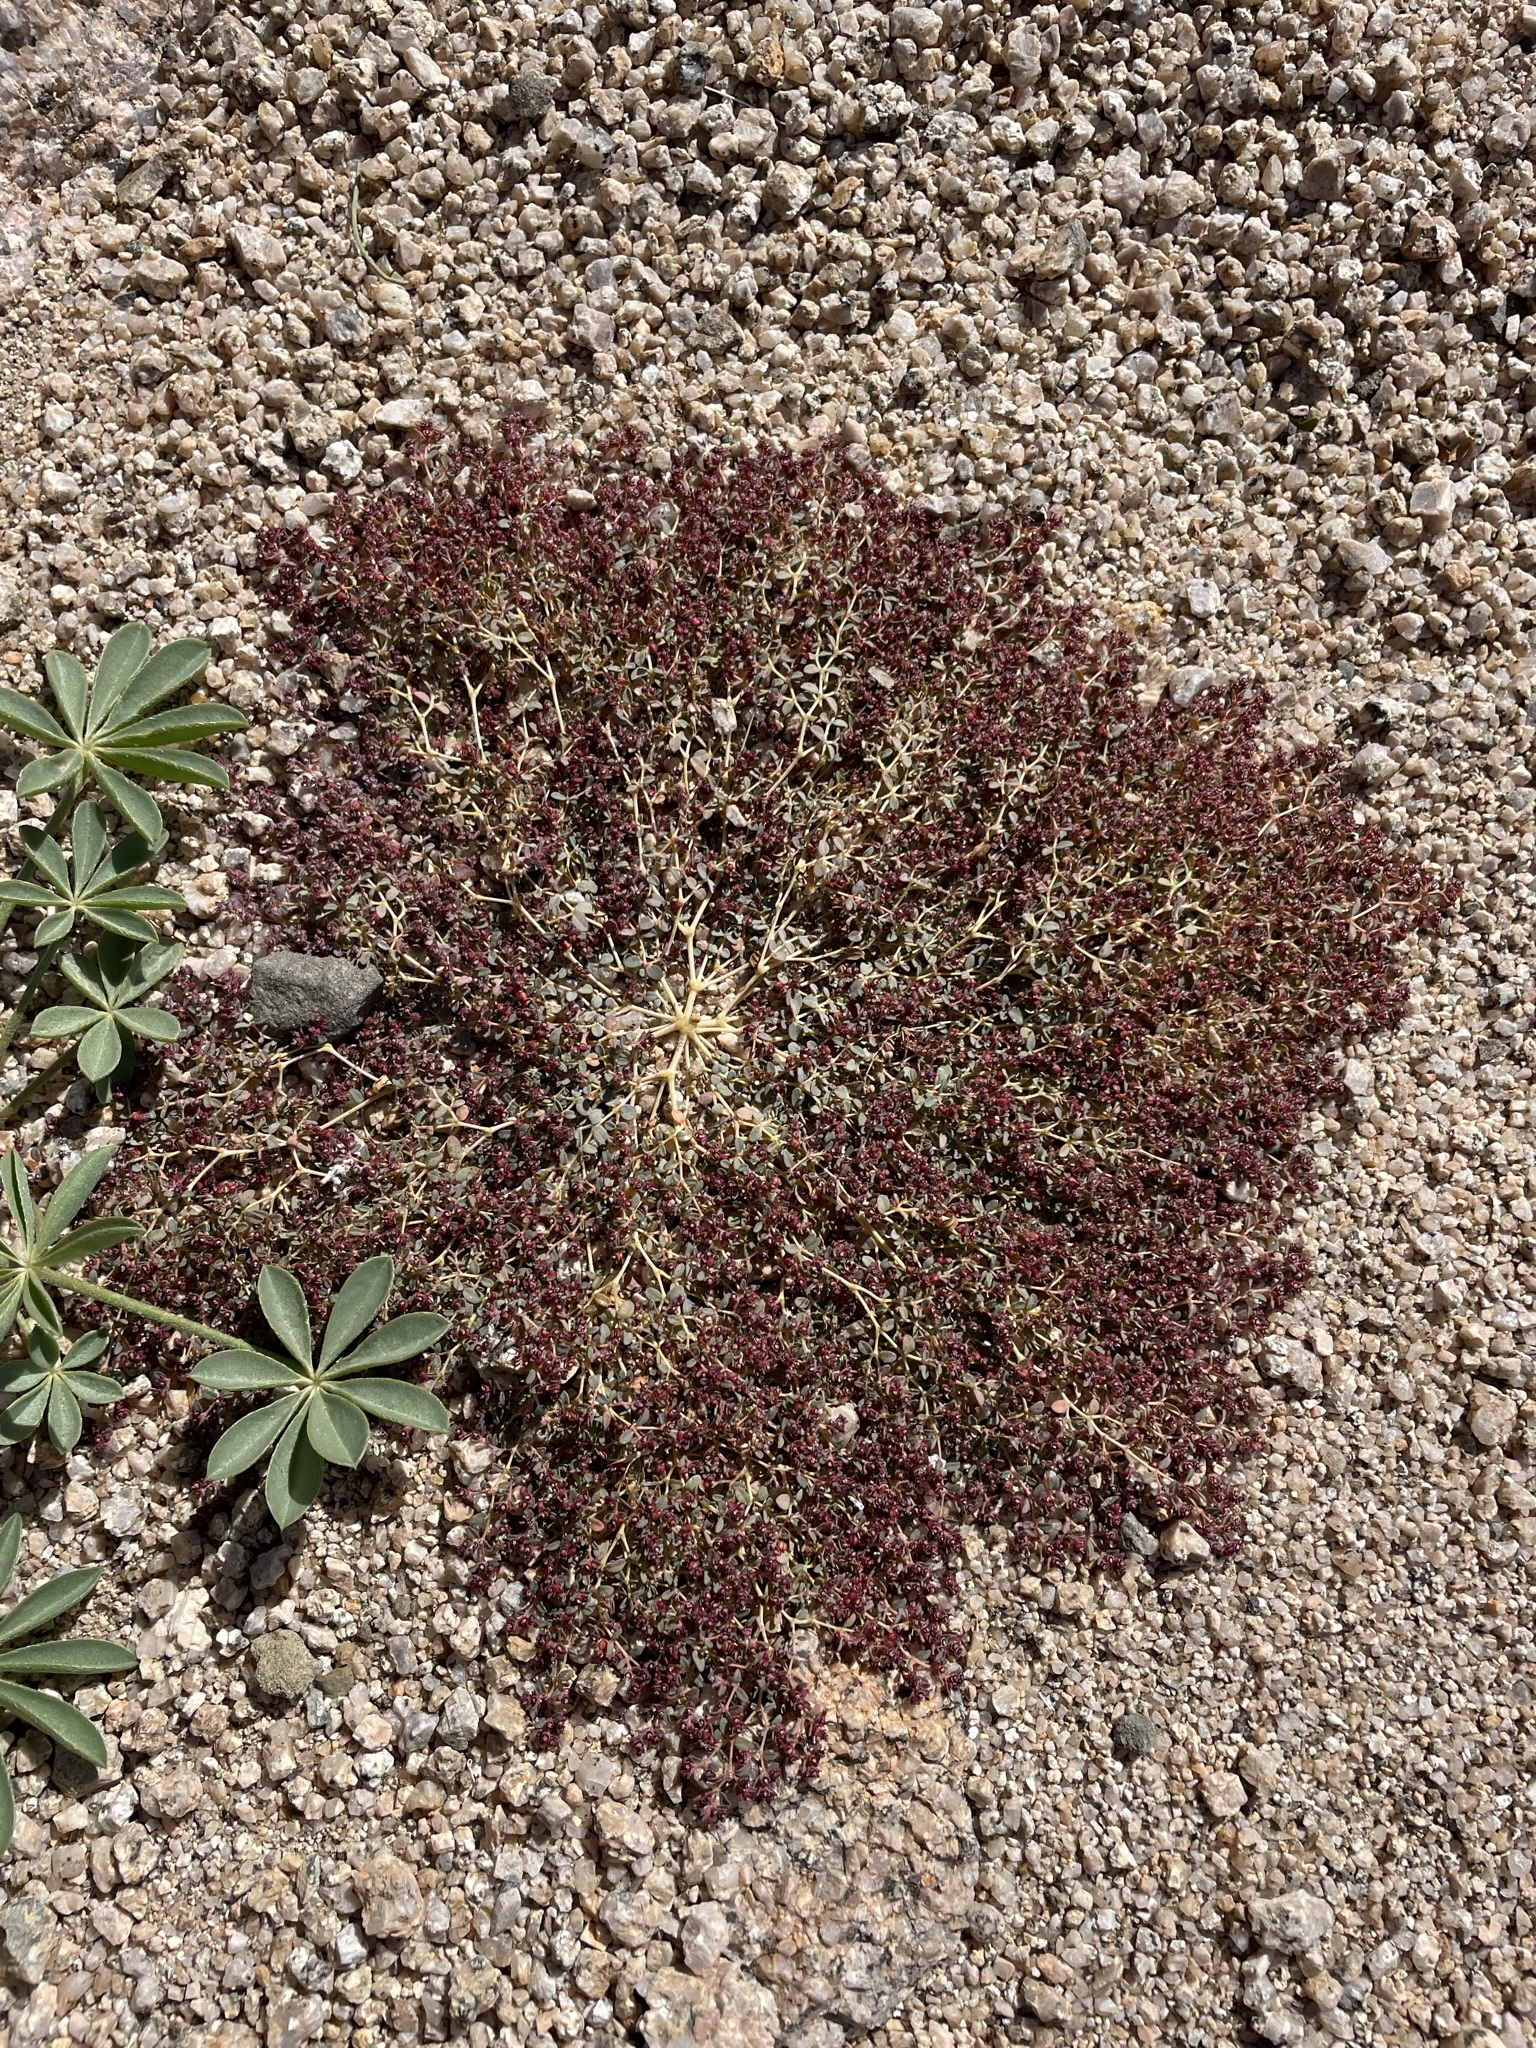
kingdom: Plantae
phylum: Tracheophyta
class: Magnoliopsida
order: Malpighiales
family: Euphorbiaceae
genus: Euphorbia
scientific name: Euphorbia polycarpa
